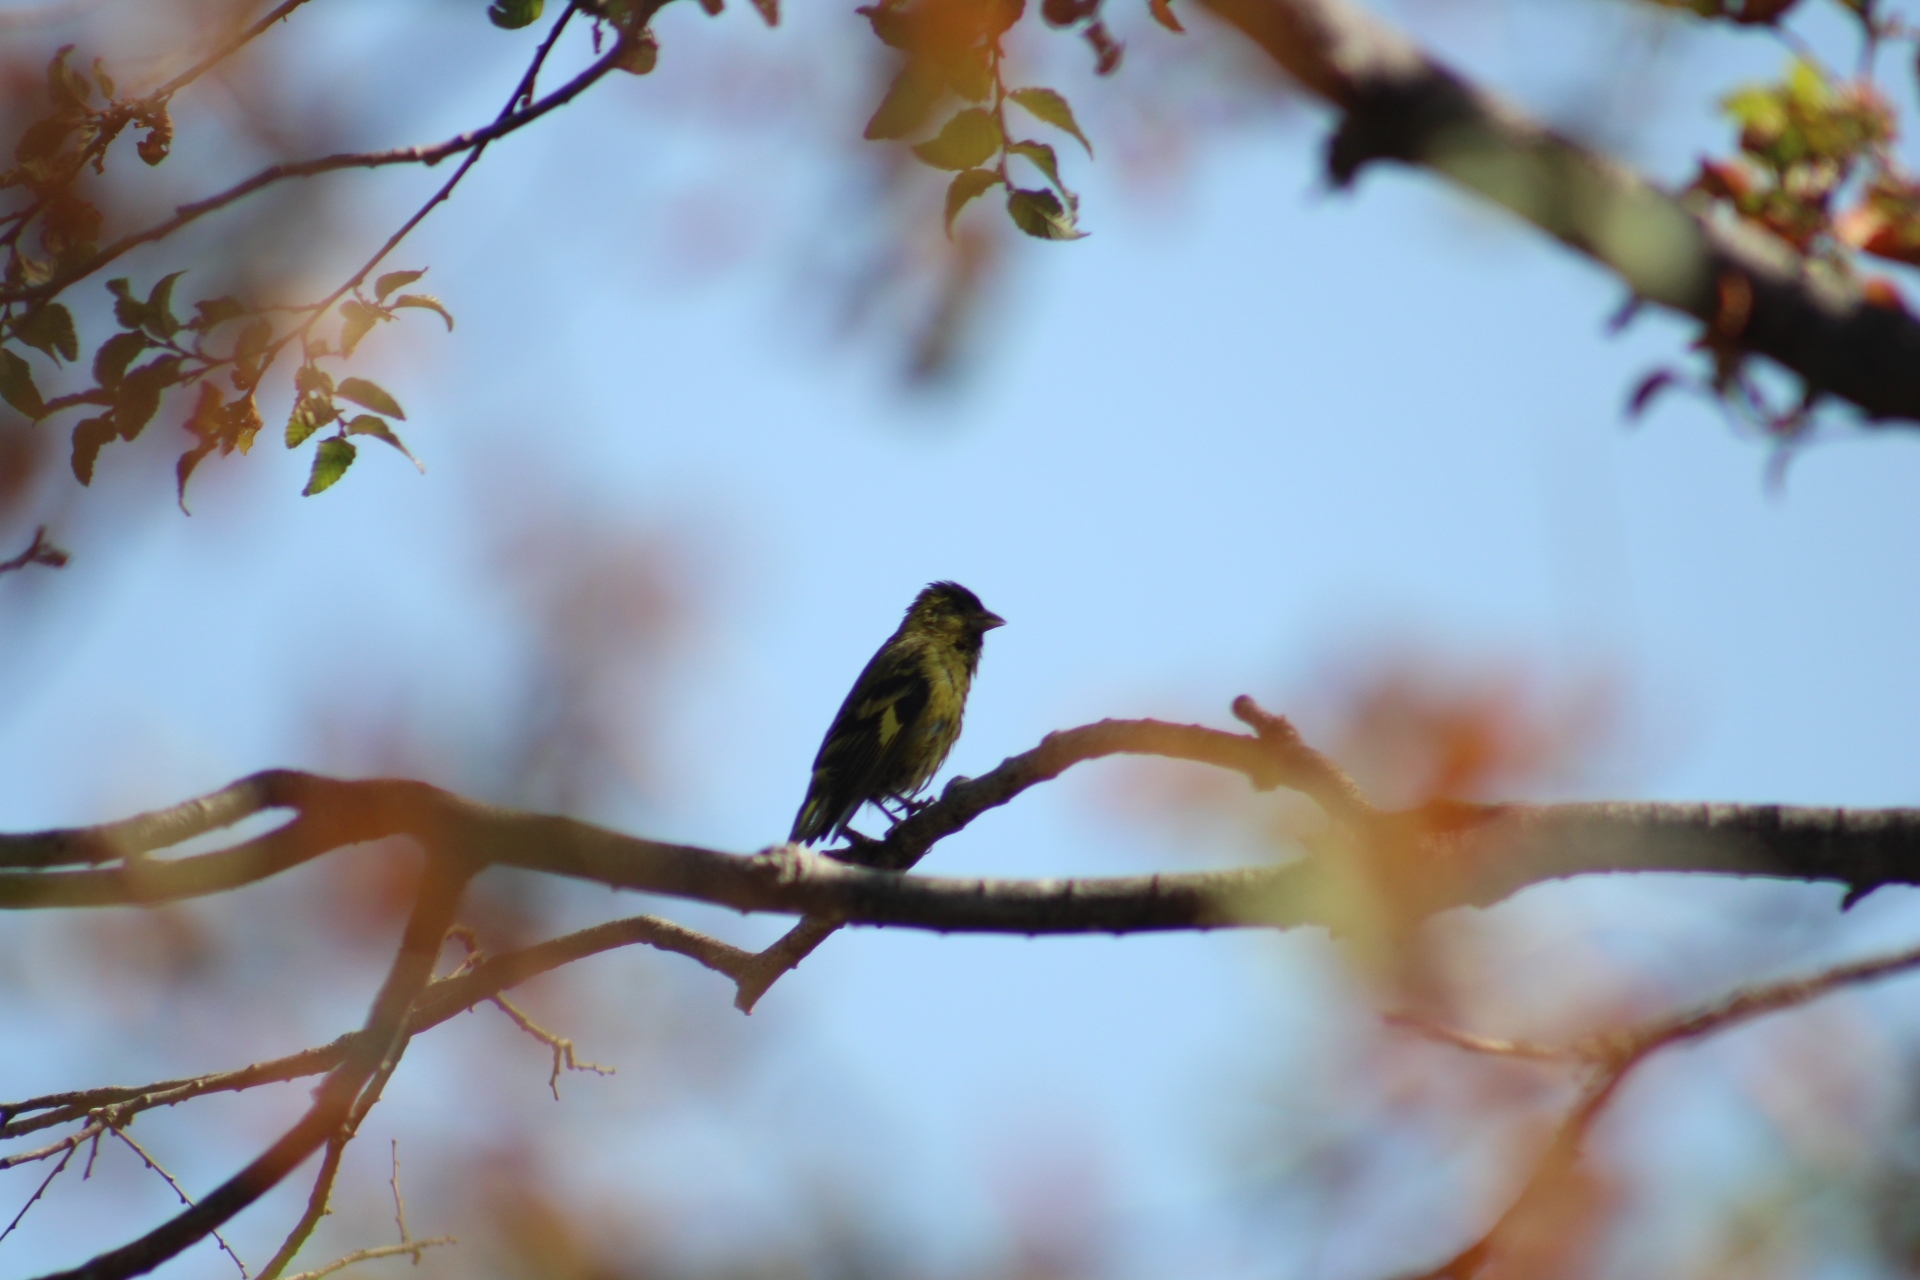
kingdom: Animalia
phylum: Chordata
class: Aves
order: Passeriformes
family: Fringillidae
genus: Spinus
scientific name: Spinus barbatus
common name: Black-chinned siskin
